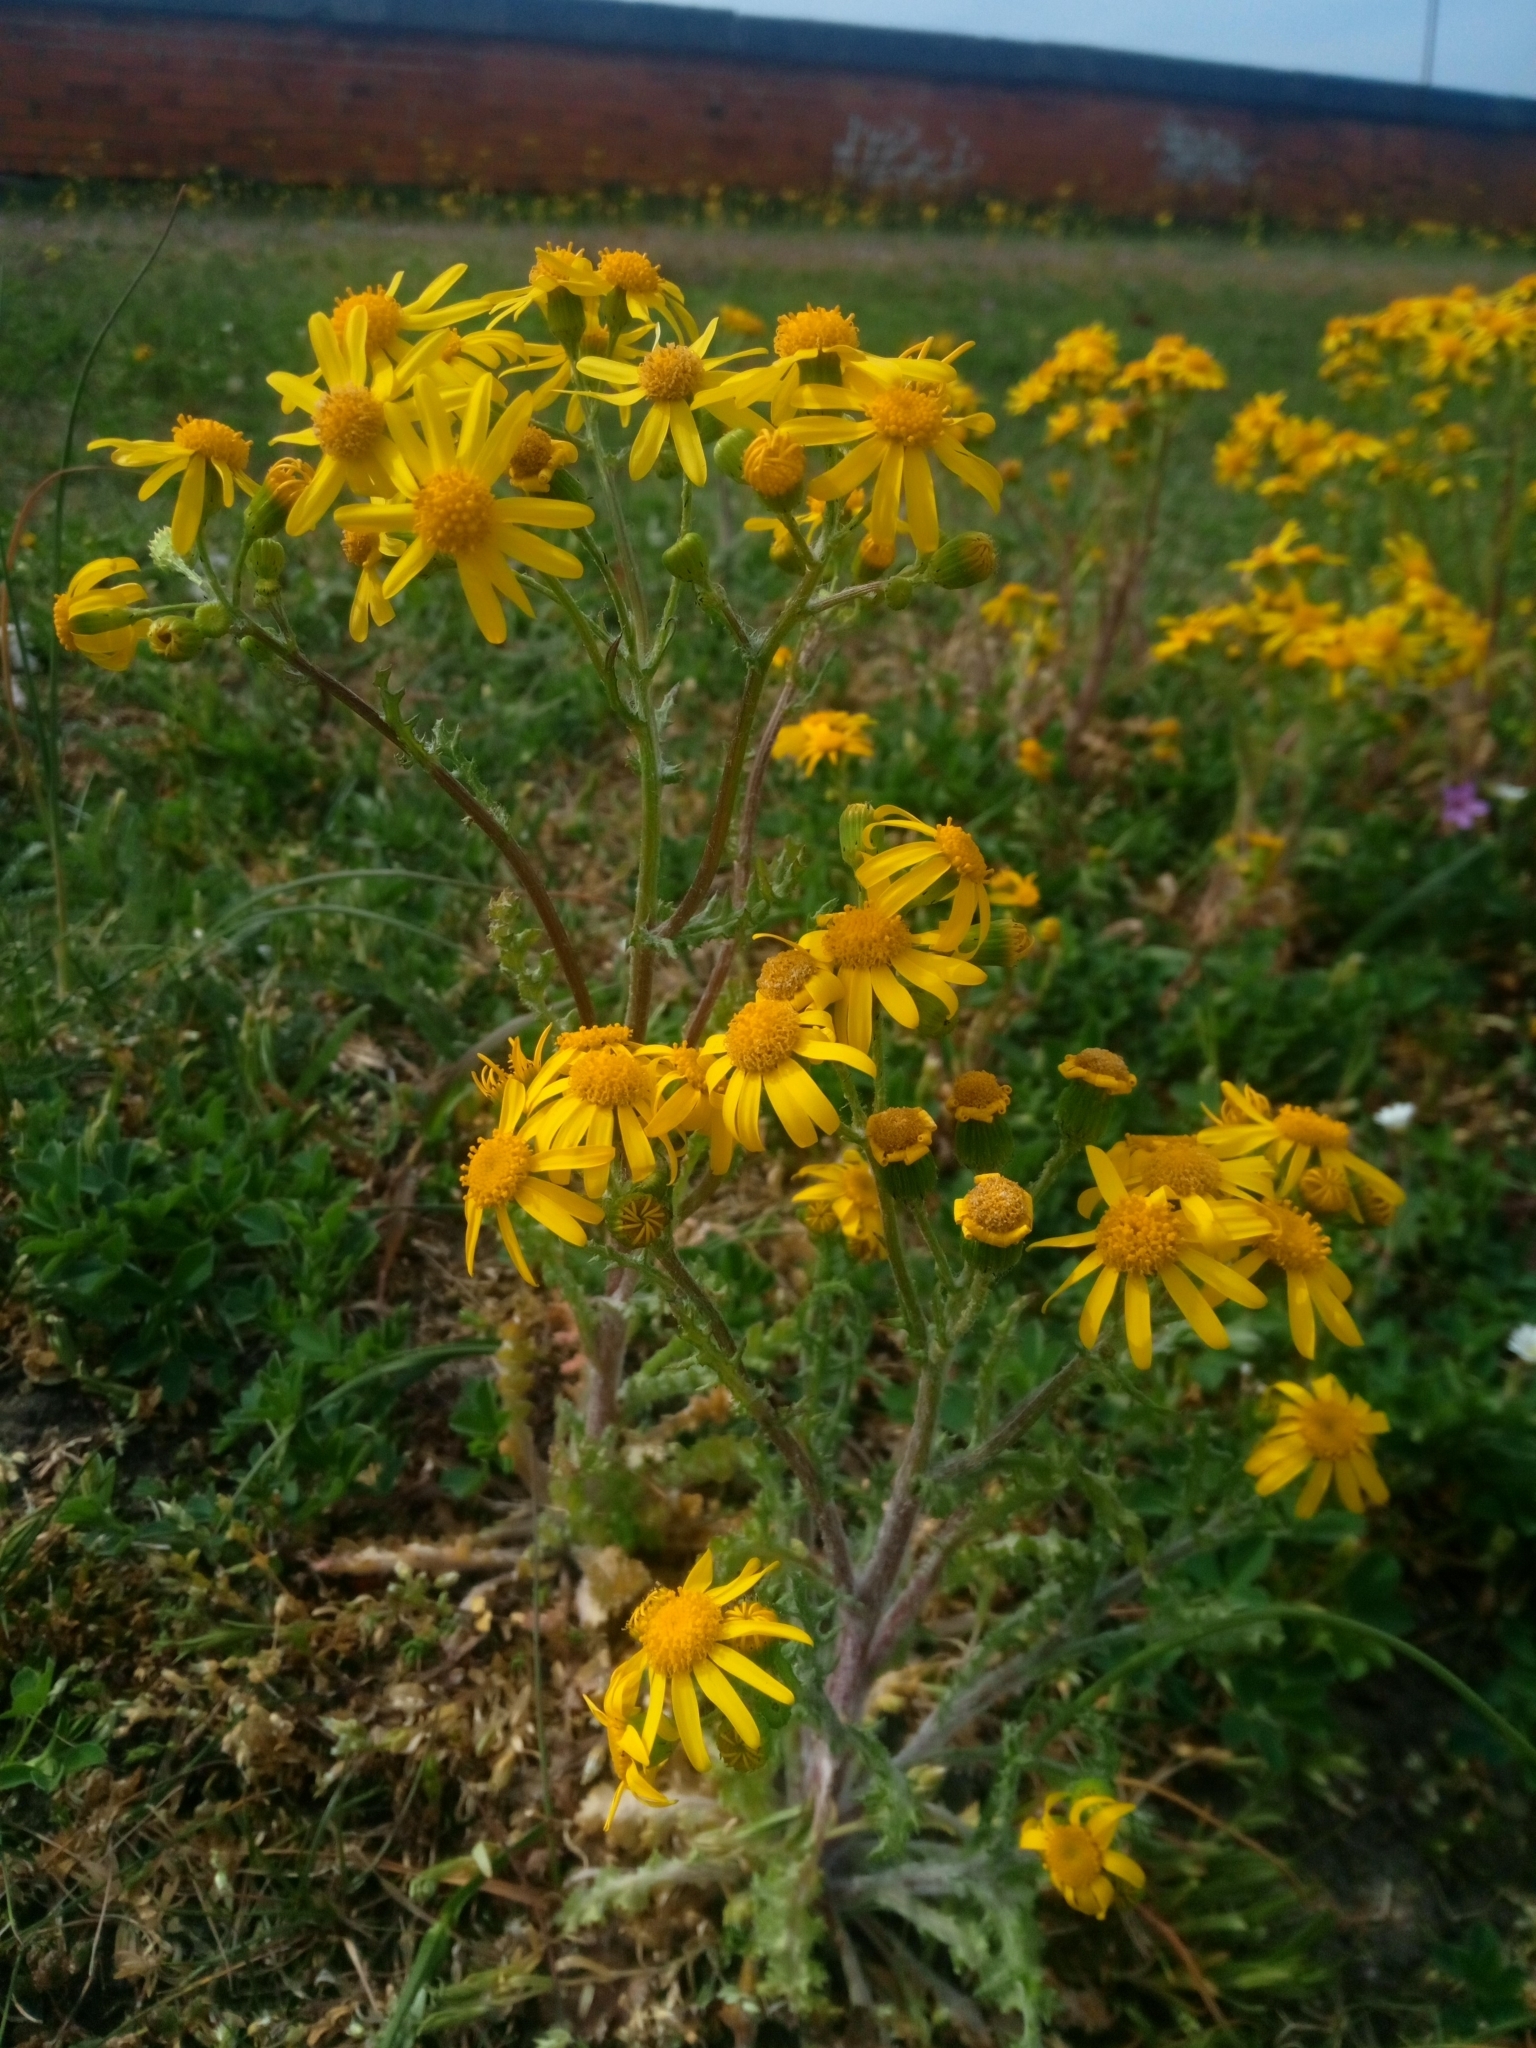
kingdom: Plantae
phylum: Tracheophyta
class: Magnoliopsida
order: Asterales
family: Asteraceae
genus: Senecio
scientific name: Senecio vernalis
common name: Eastern groundsel
